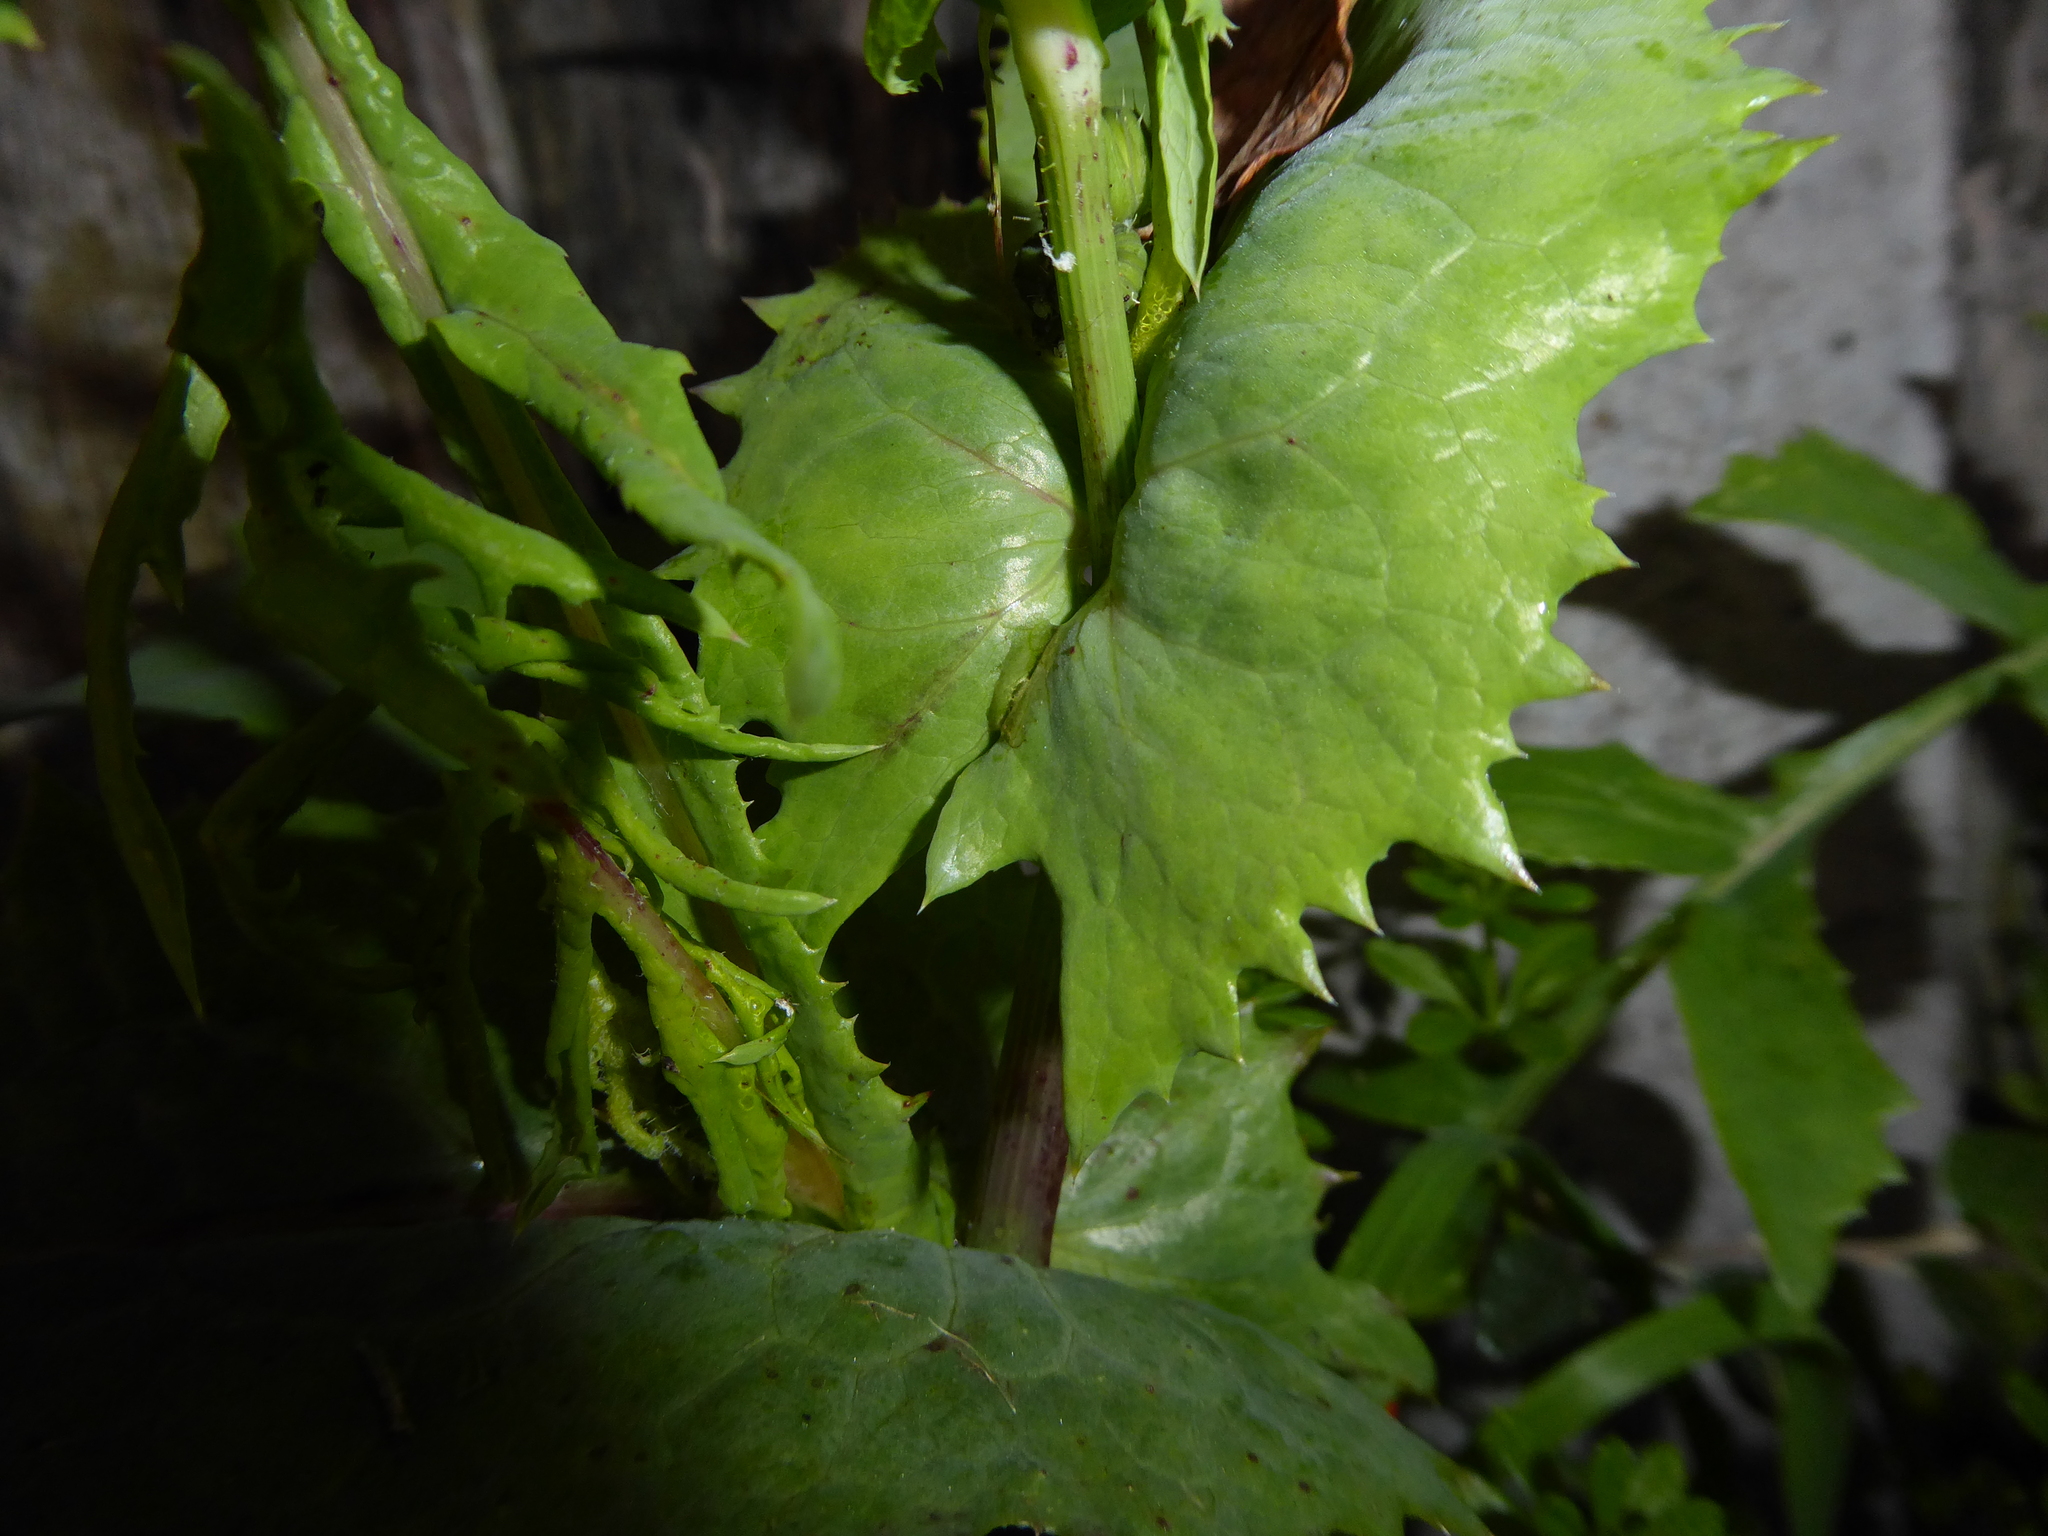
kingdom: Plantae
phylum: Tracheophyta
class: Magnoliopsida
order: Asterales
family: Asteraceae
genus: Sonchus
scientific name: Sonchus oleraceus
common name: Common sowthistle
